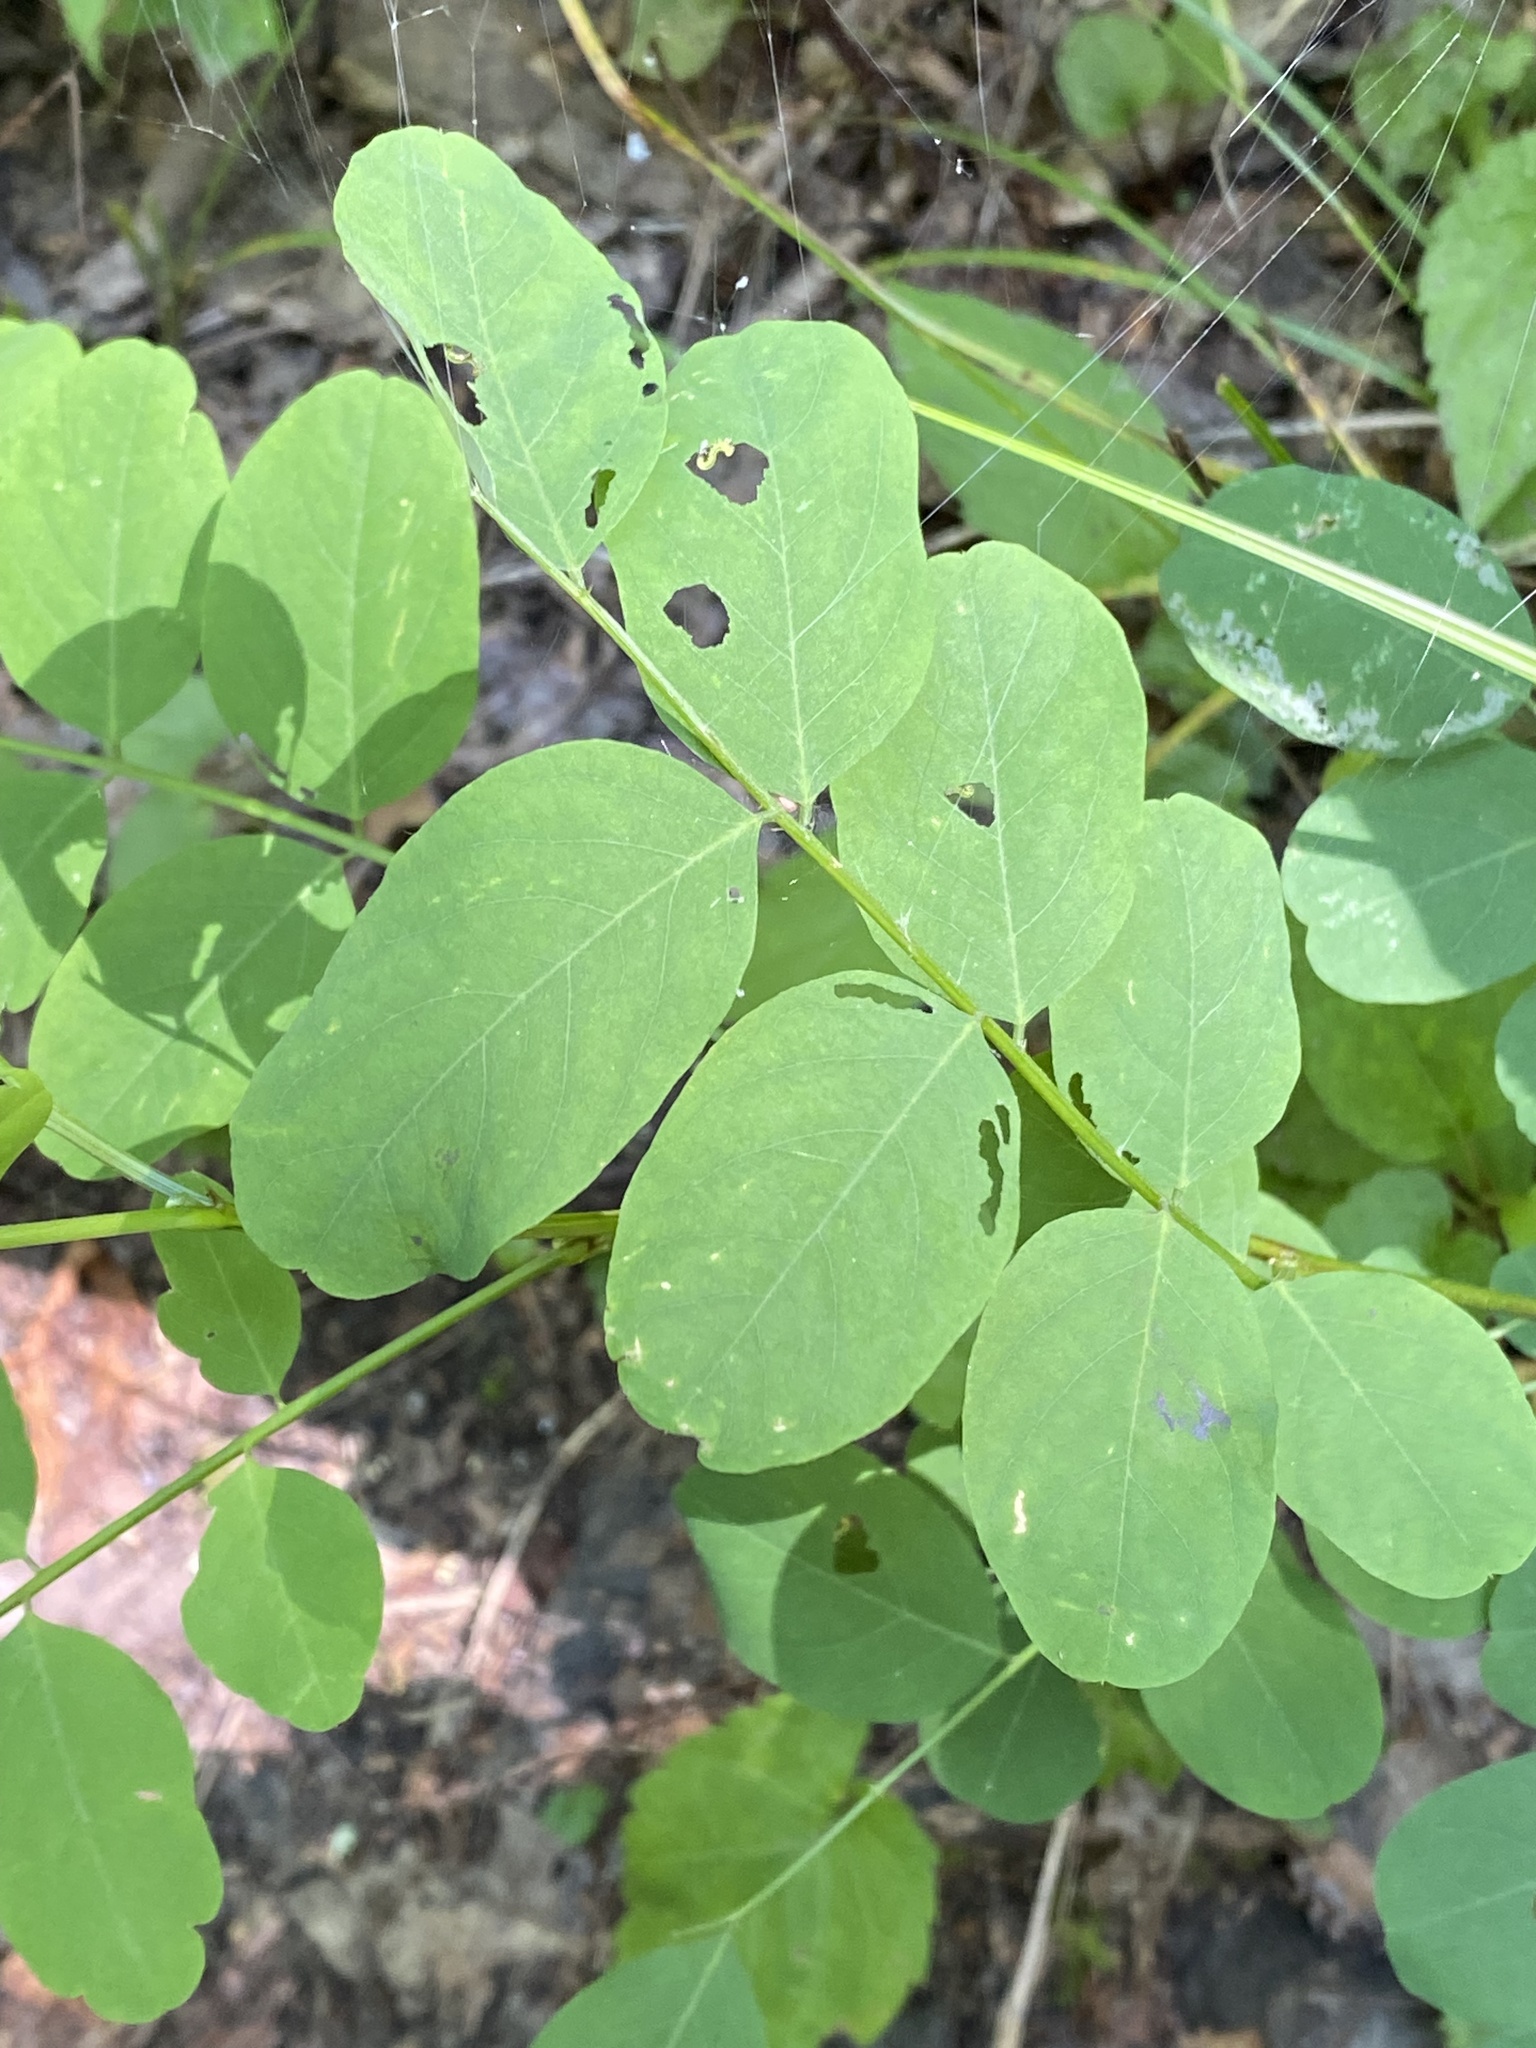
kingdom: Plantae
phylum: Tracheophyta
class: Magnoliopsida
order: Fabales
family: Fabaceae
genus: Robinia
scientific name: Robinia pseudoacacia
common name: Black locust
